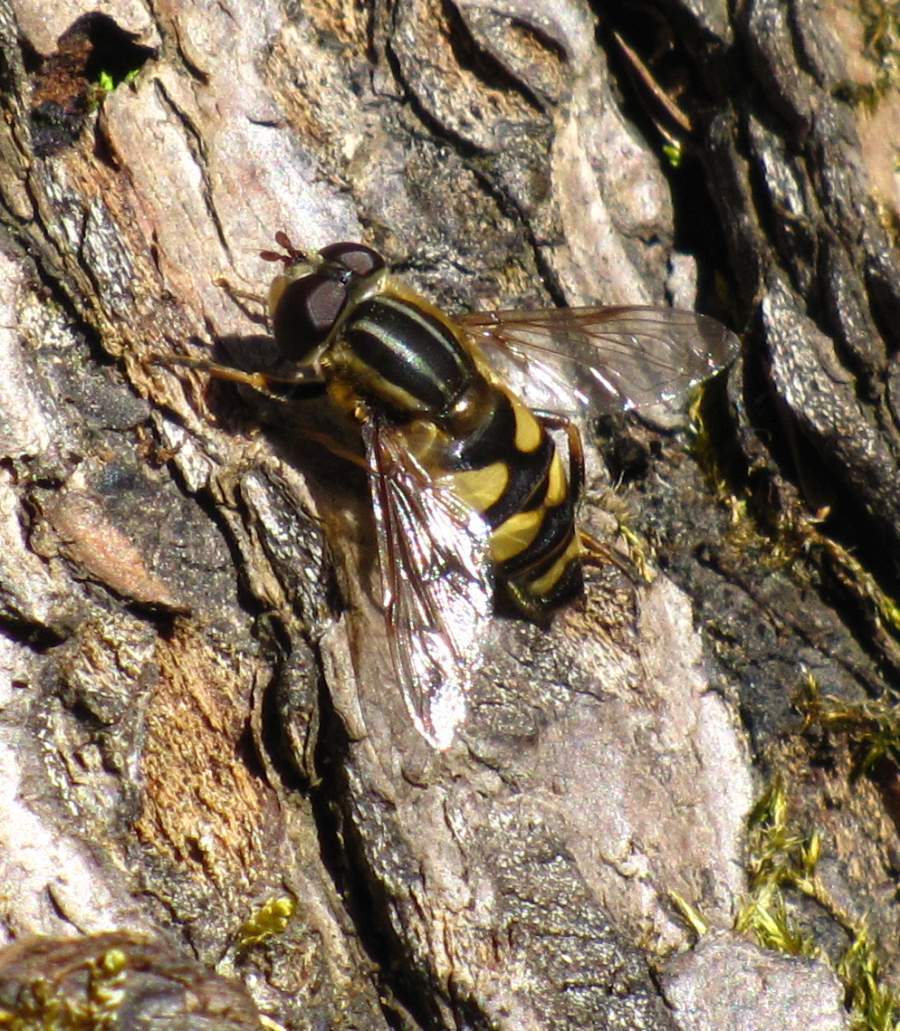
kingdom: Animalia
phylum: Arthropoda
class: Insecta
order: Diptera
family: Syrphidae
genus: Helophilus
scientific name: Helophilus fasciatus
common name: Narrow-headed marsh fly
